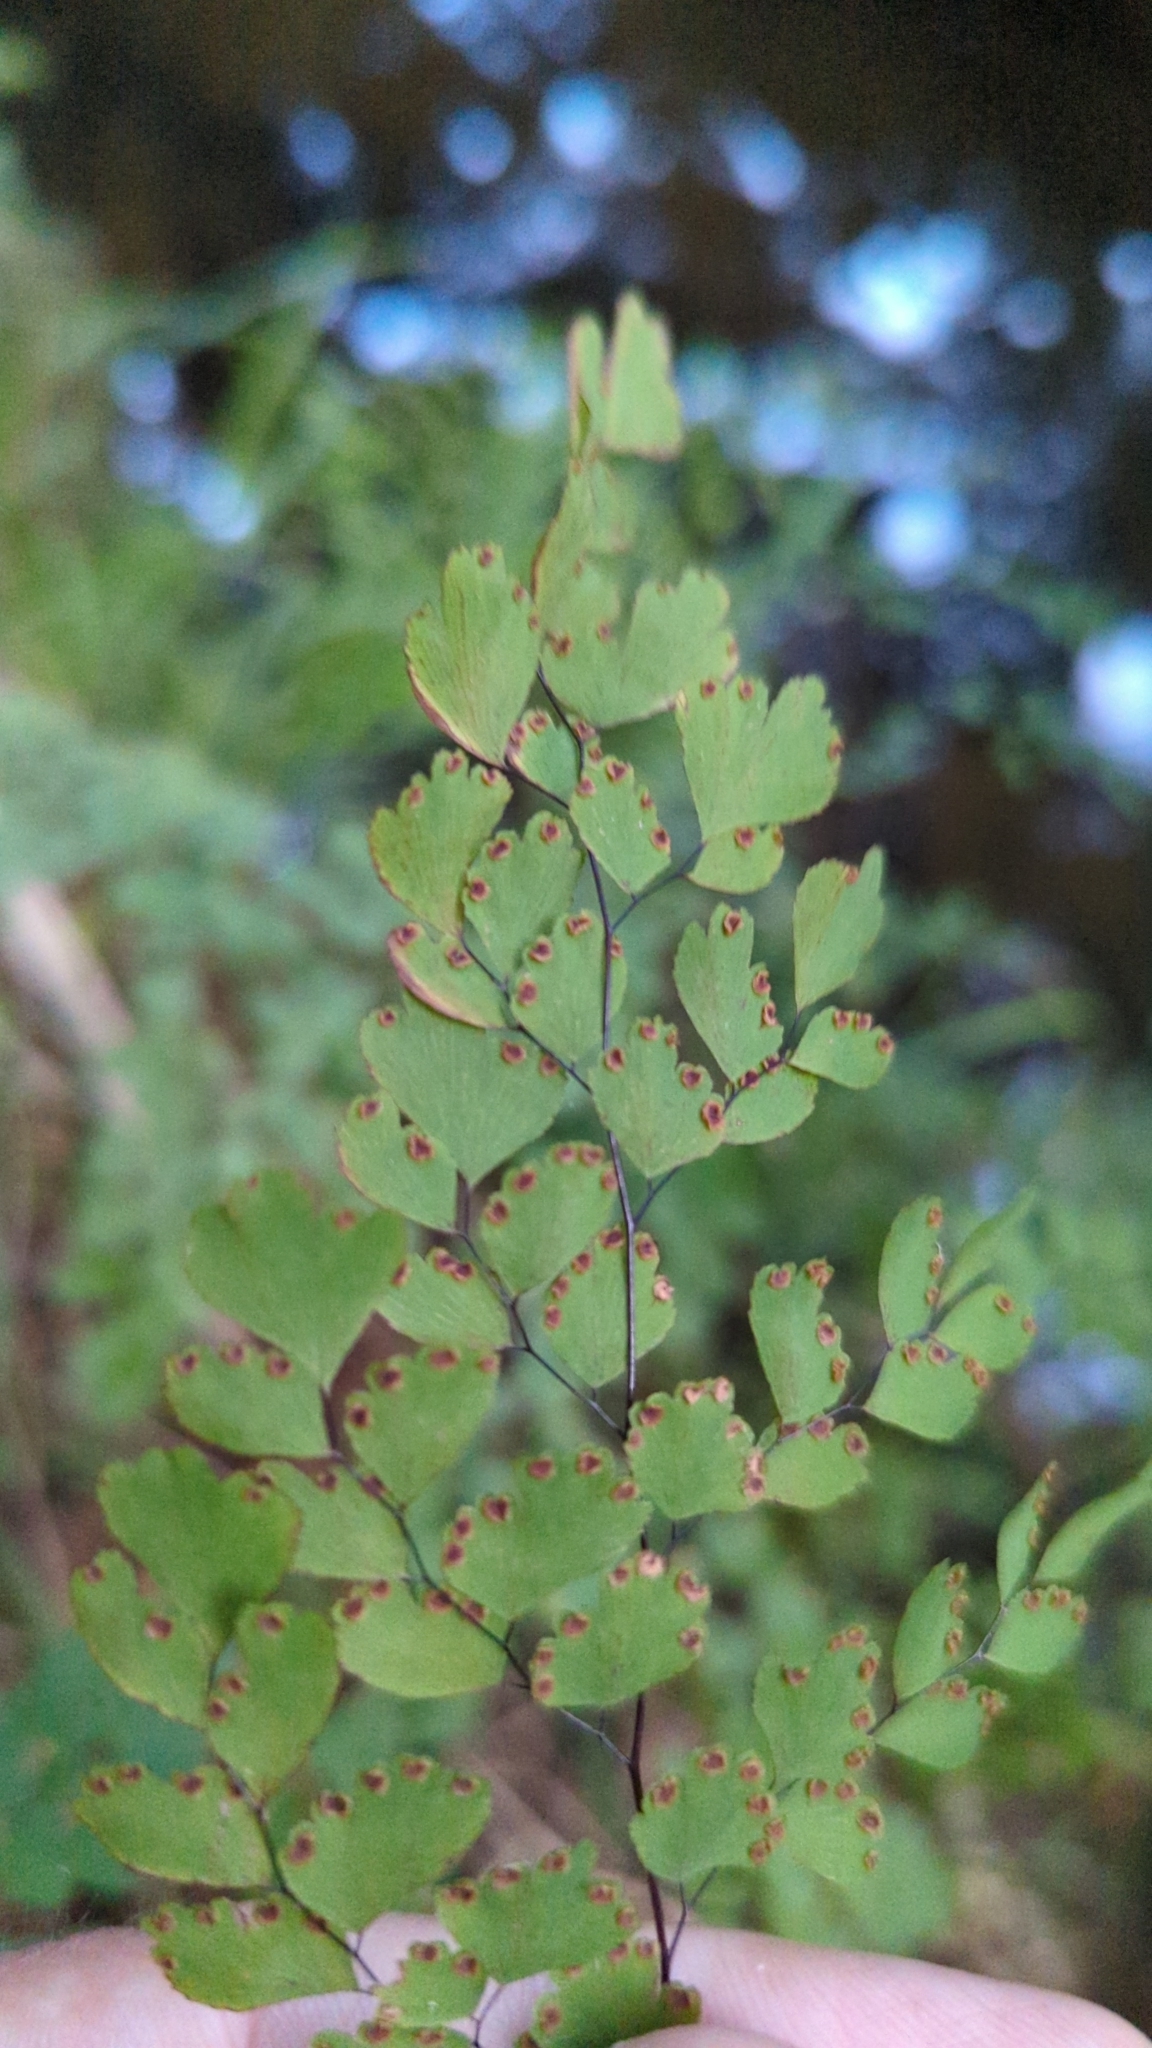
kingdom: Plantae
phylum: Tracheophyta
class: Polypodiopsida
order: Polypodiales
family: Pteridaceae
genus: Adiantum
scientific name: Adiantum raddianum
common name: Delta maidenhair fern
